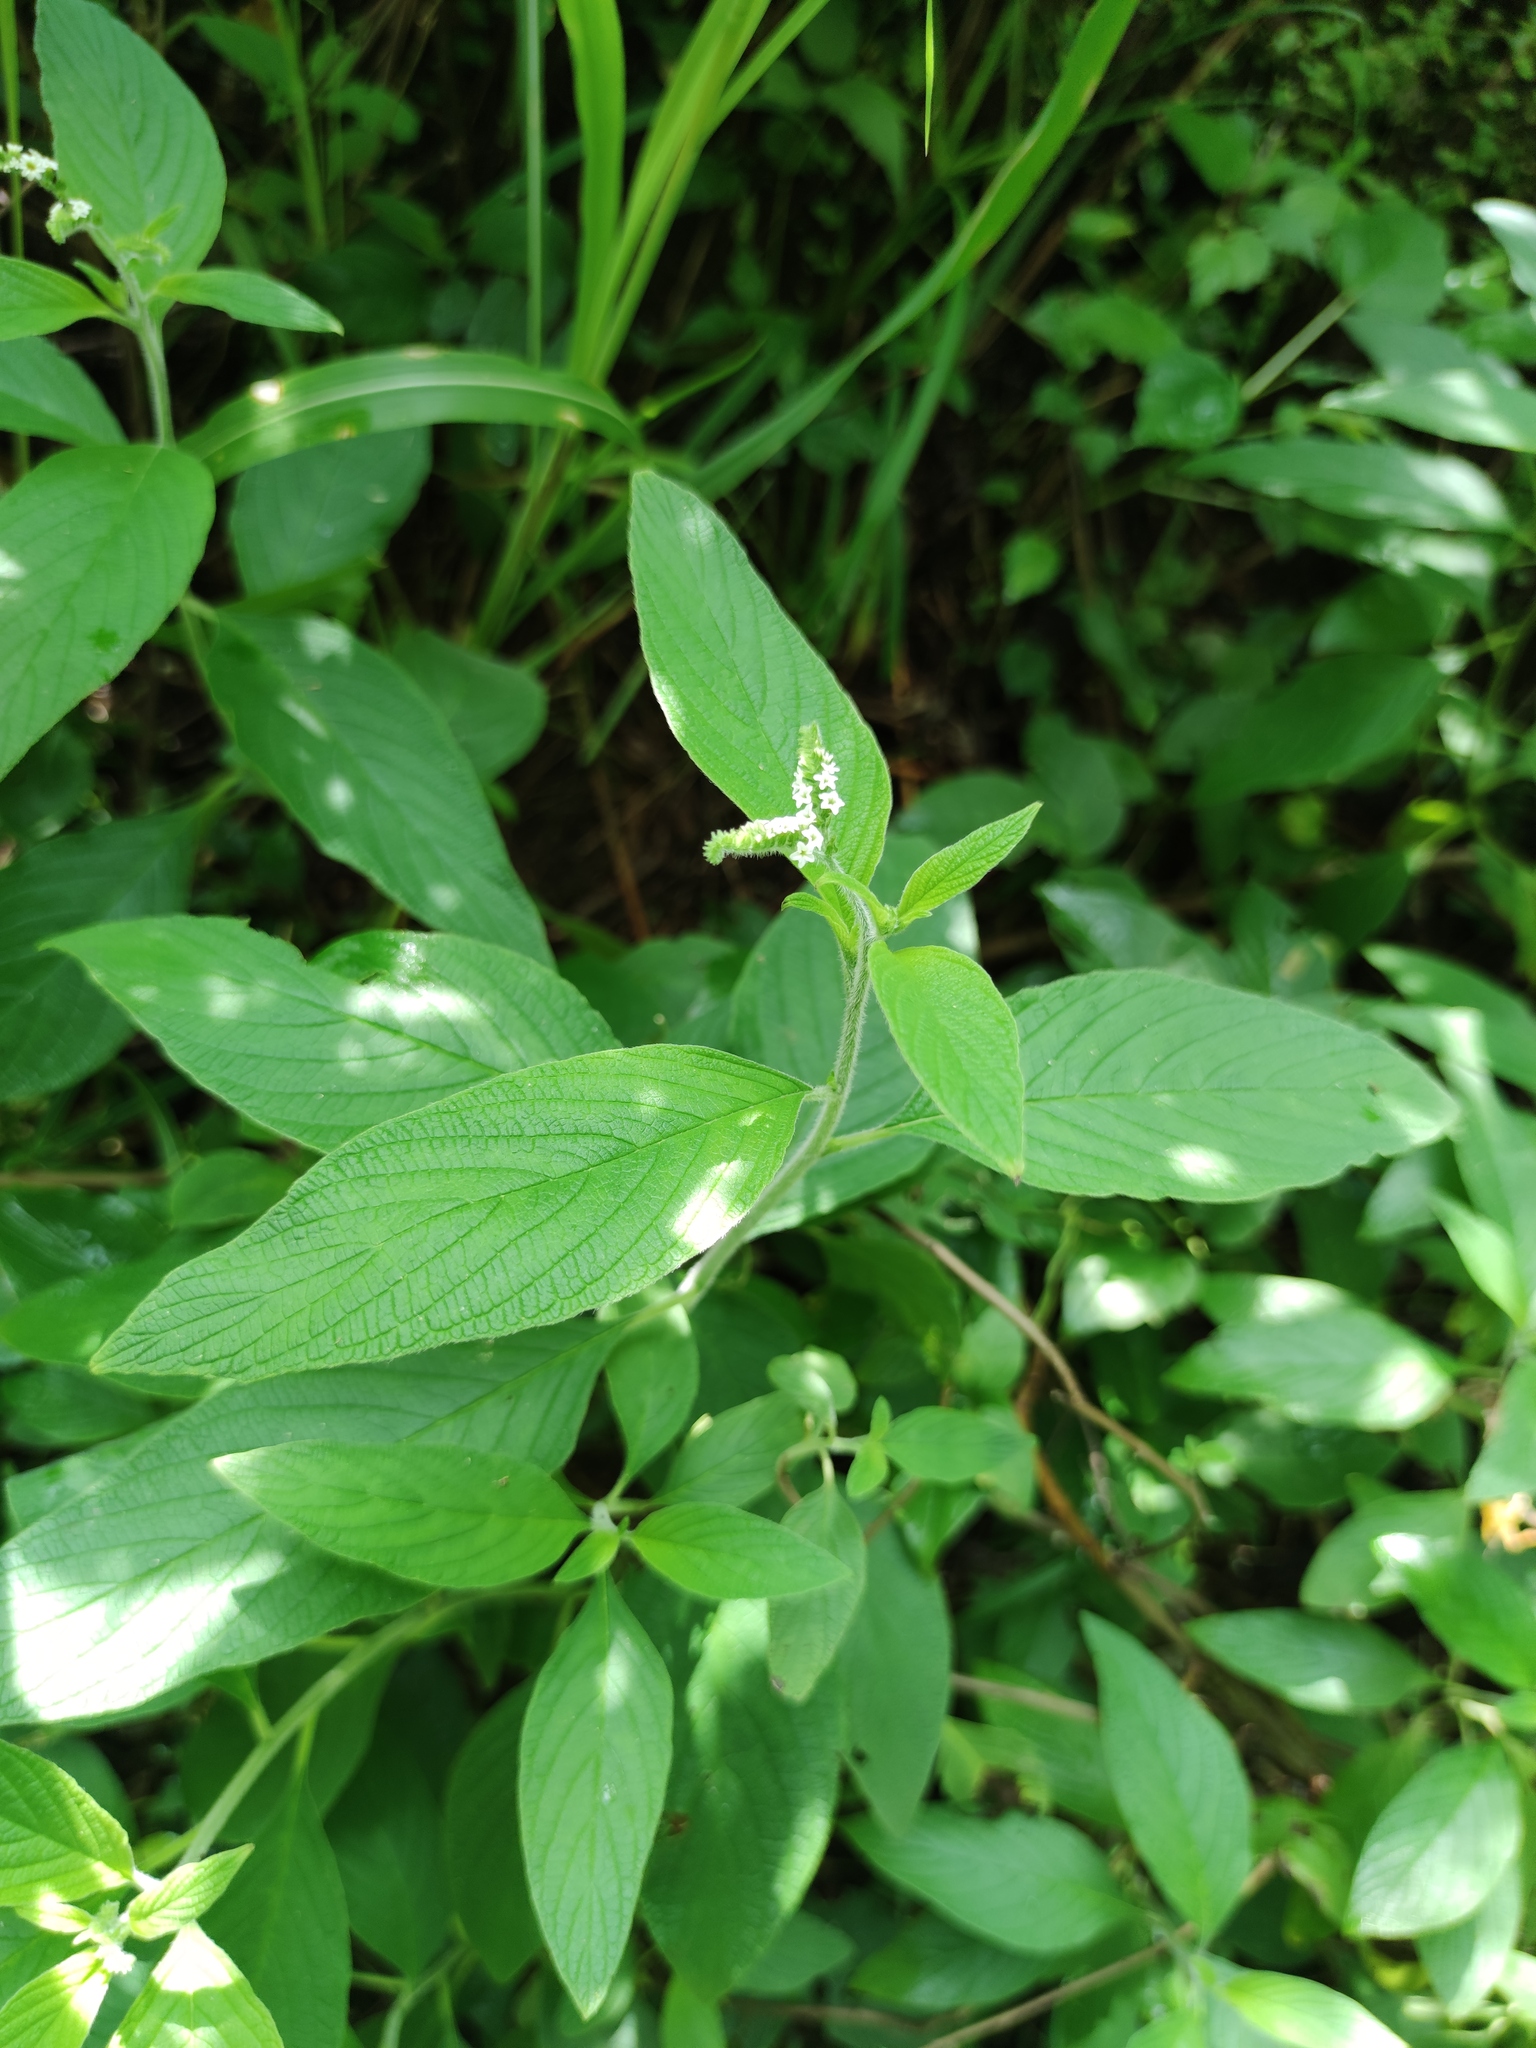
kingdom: Plantae
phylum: Tracheophyta
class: Magnoliopsida
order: Boraginales
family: Heliotropiaceae
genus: Heliotropium
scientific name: Heliotropium angiospermum
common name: Eye bright
